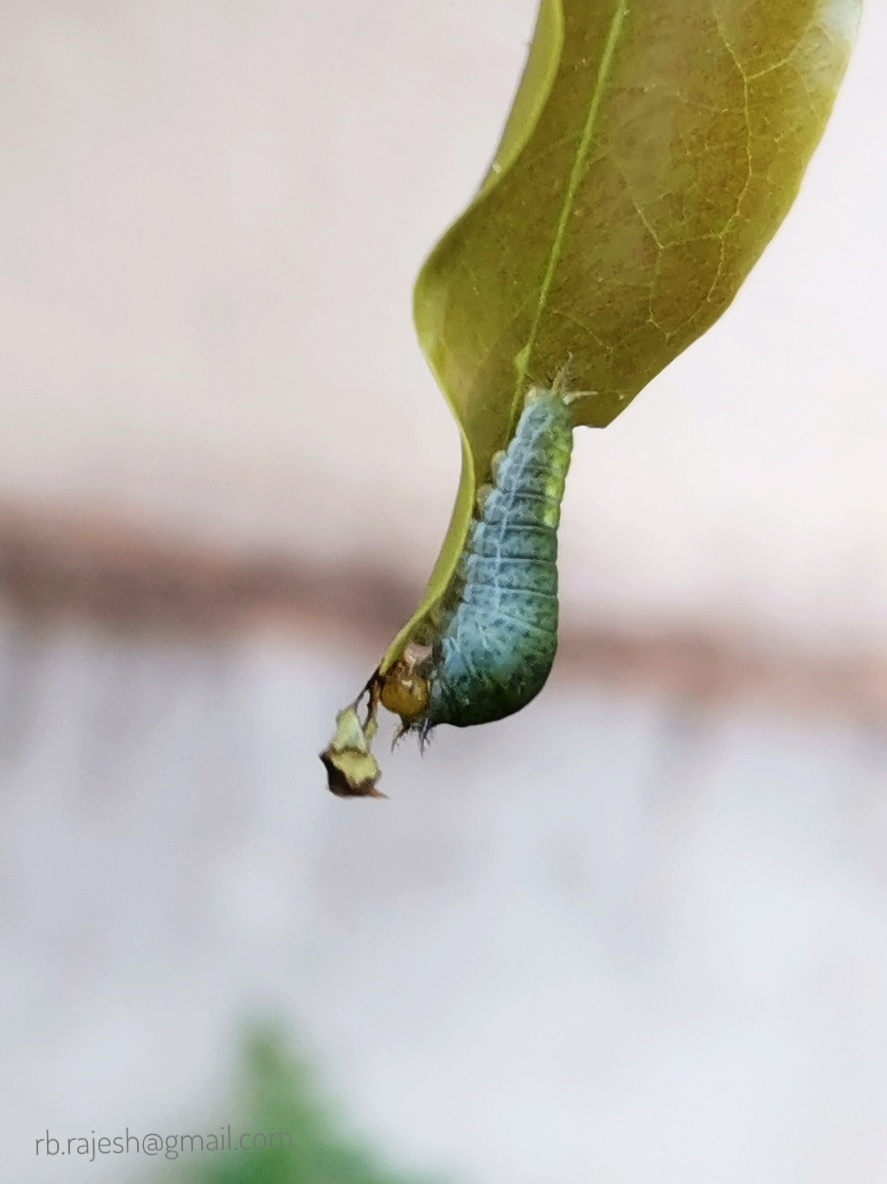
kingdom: Animalia
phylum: Arthropoda
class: Insecta
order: Lepidoptera
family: Papilionidae
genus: Graphium
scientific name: Graphium agamemnon
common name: Tailed jay
